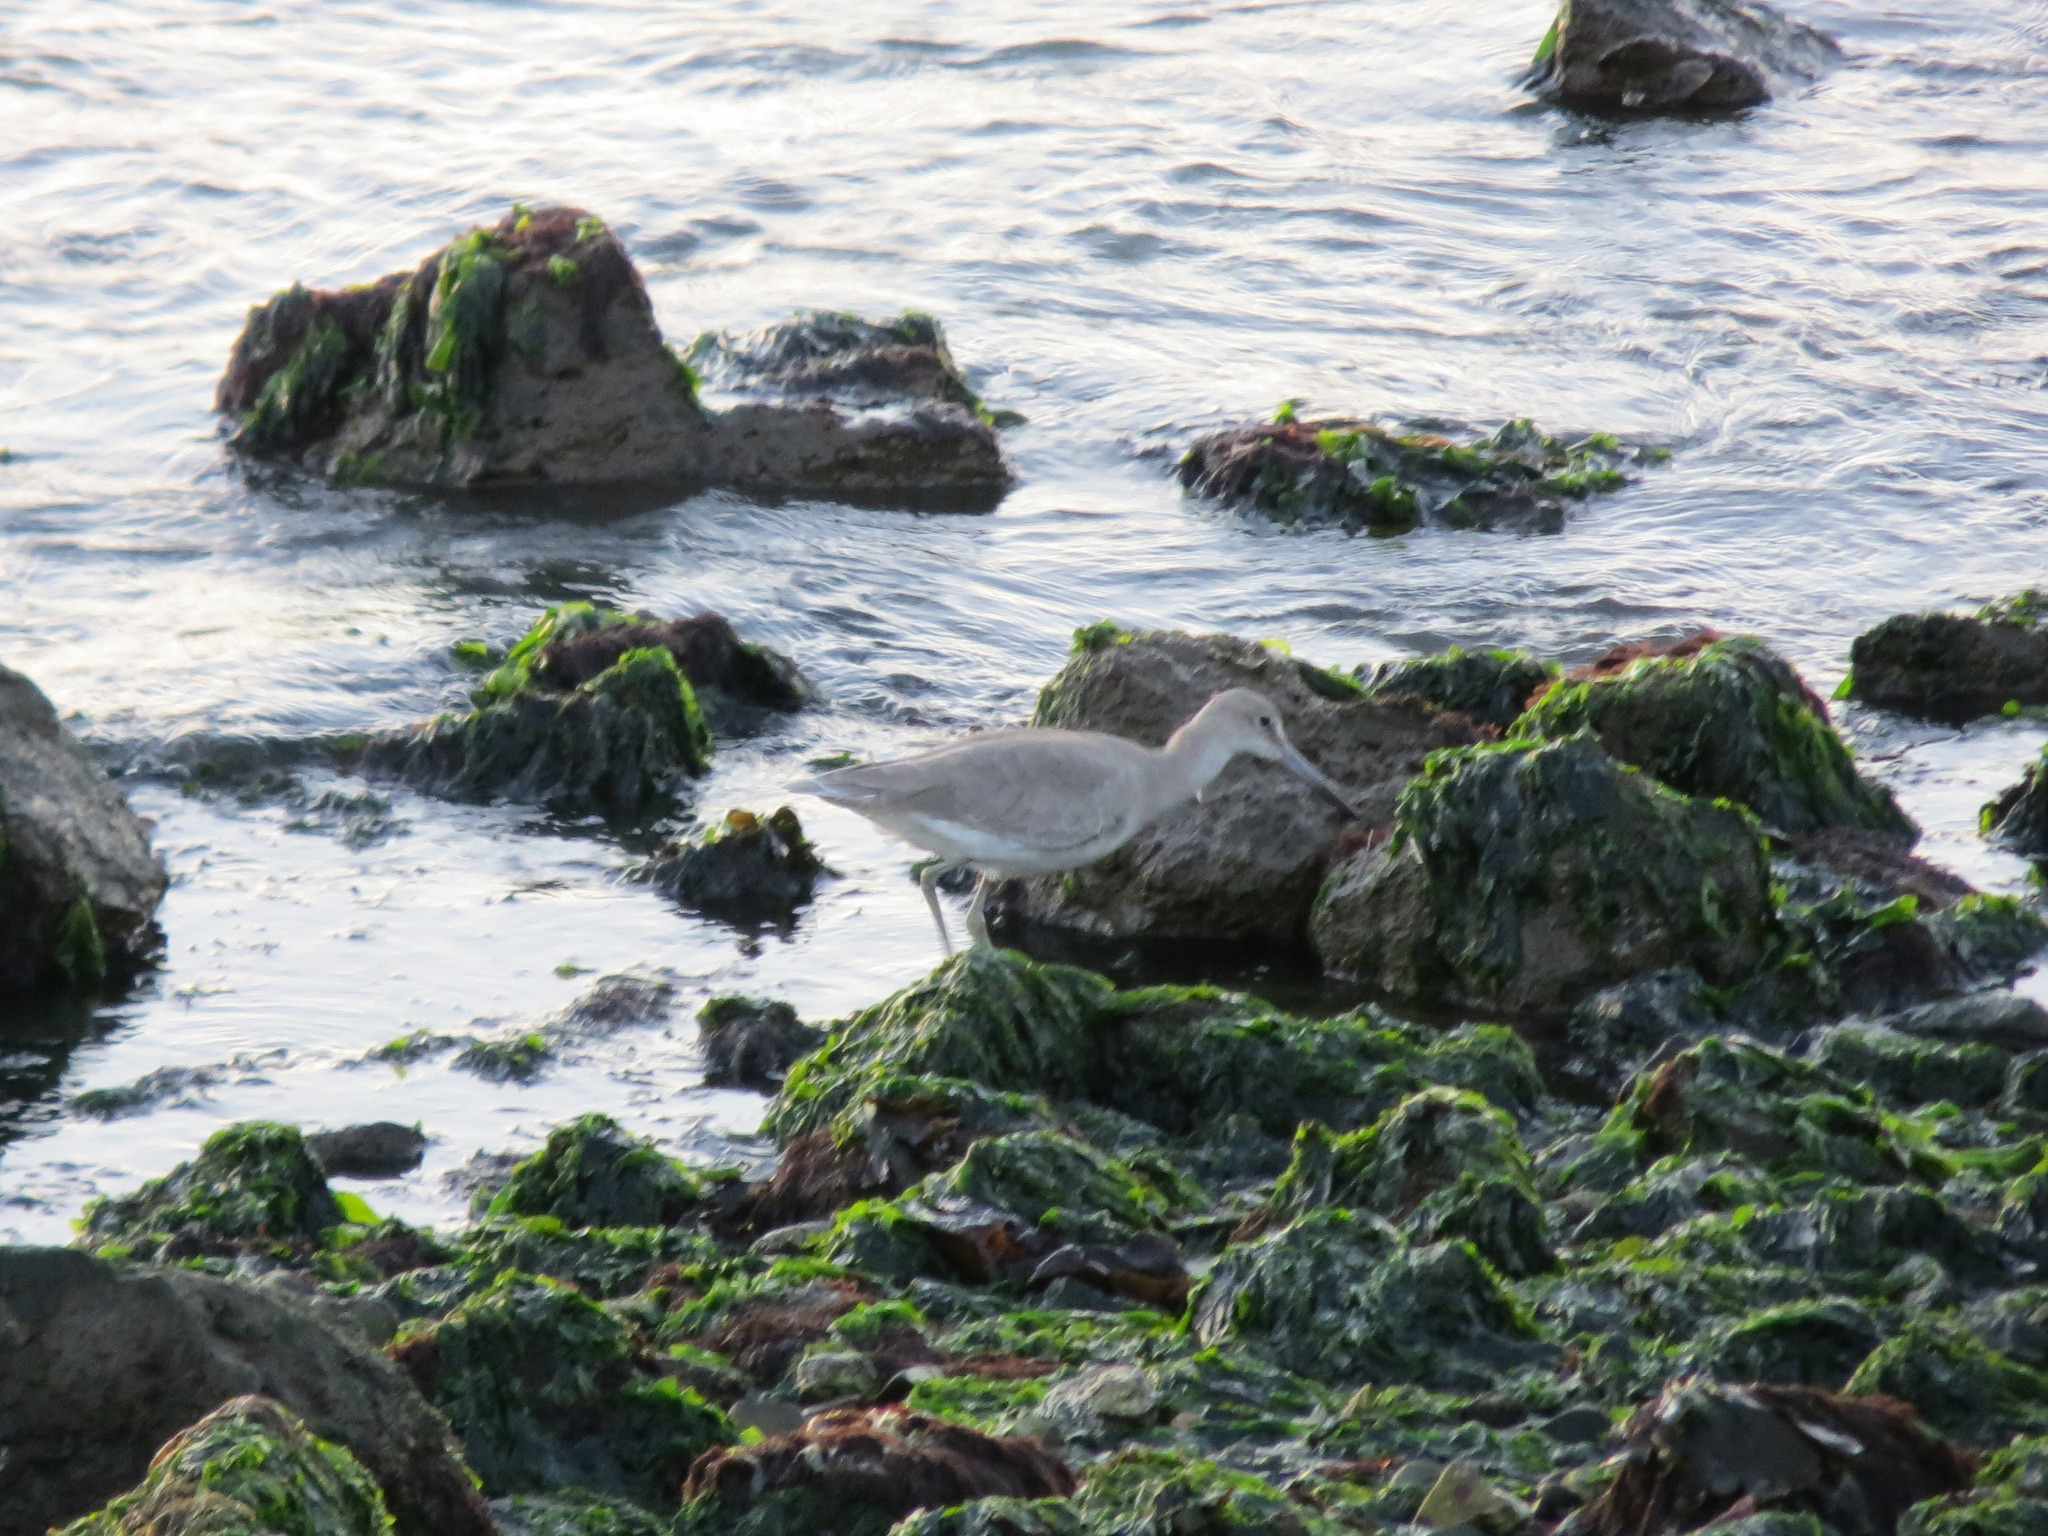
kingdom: Animalia
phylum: Chordata
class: Aves
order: Charadriiformes
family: Scolopacidae
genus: Tringa
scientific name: Tringa semipalmata
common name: Willet
